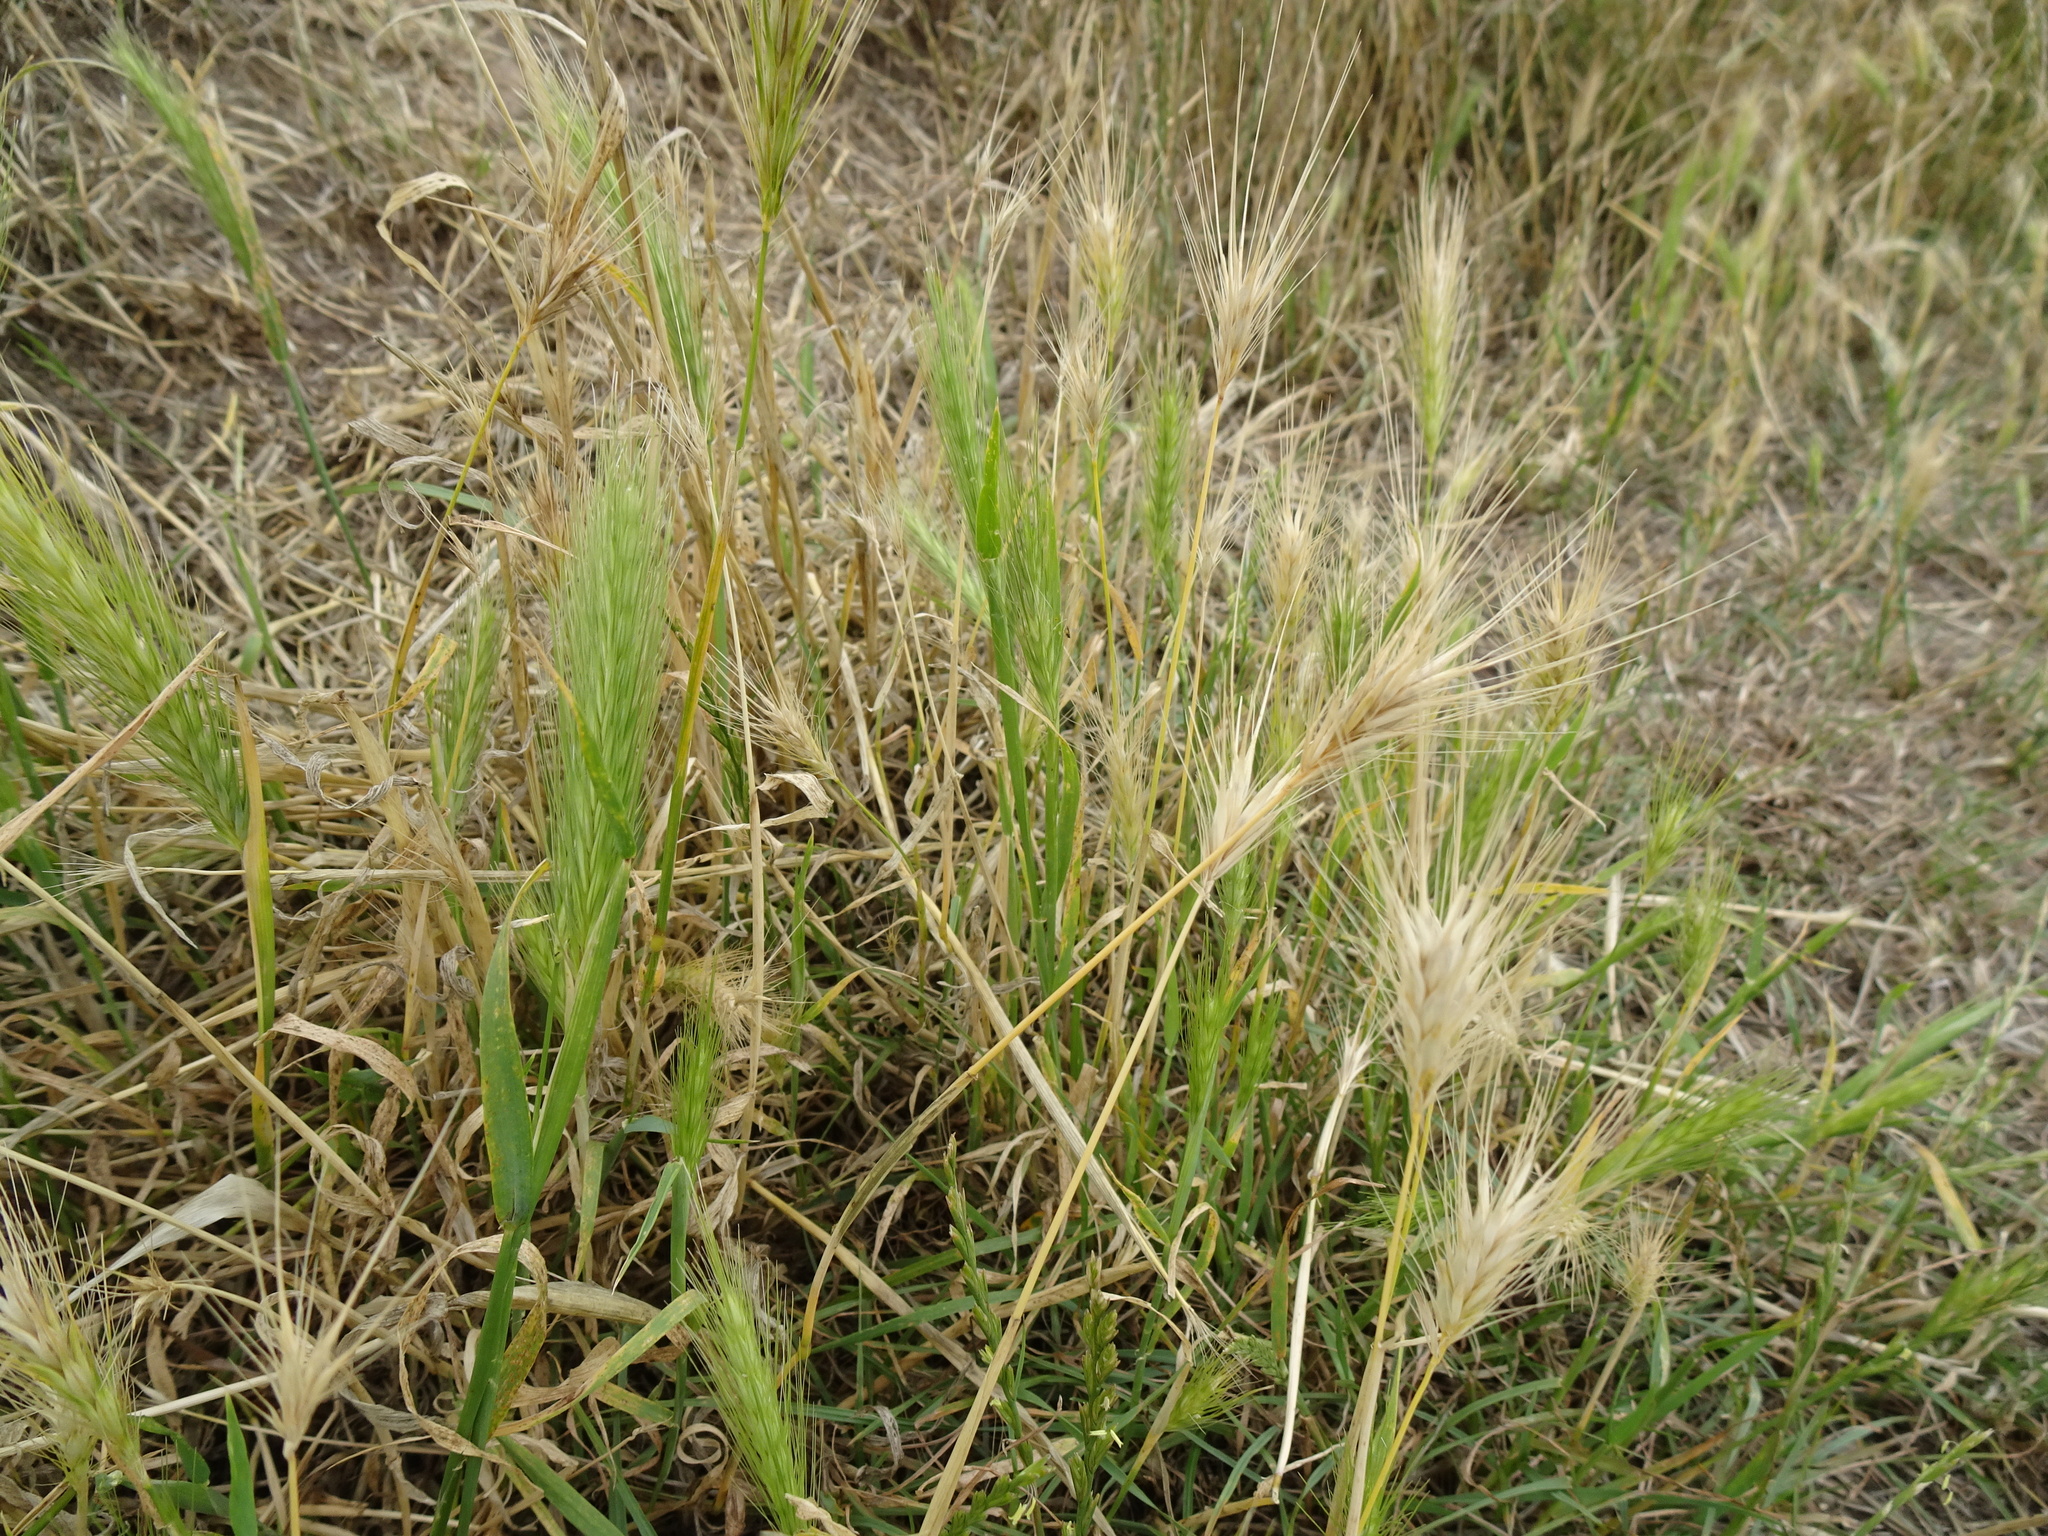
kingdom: Plantae
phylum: Tracheophyta
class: Liliopsida
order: Poales
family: Poaceae
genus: Hordeum
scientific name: Hordeum murinum
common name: Wall barley
